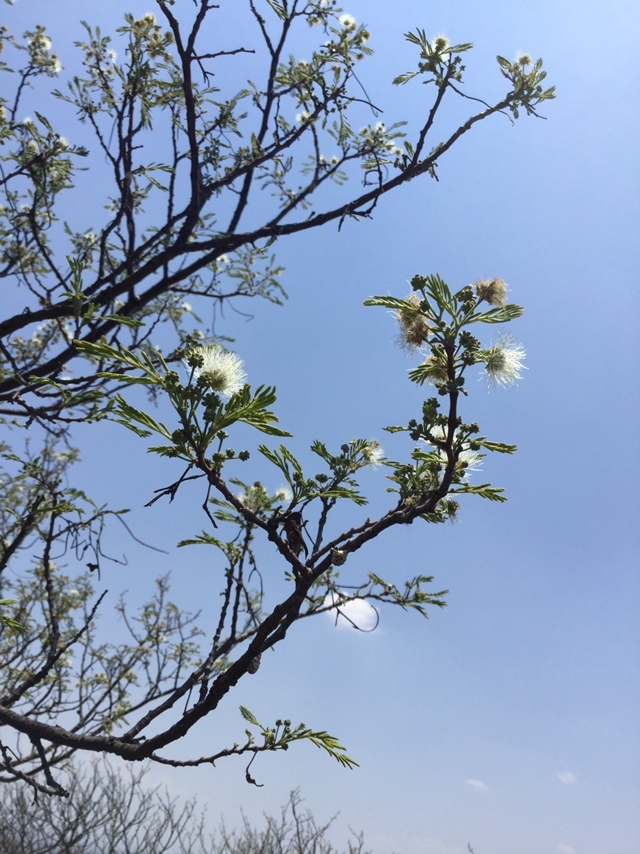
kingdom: Plantae
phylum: Tracheophyta
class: Magnoliopsida
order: Fabales
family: Fabaceae
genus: Lysiloma
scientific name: Lysiloma divaricatum
